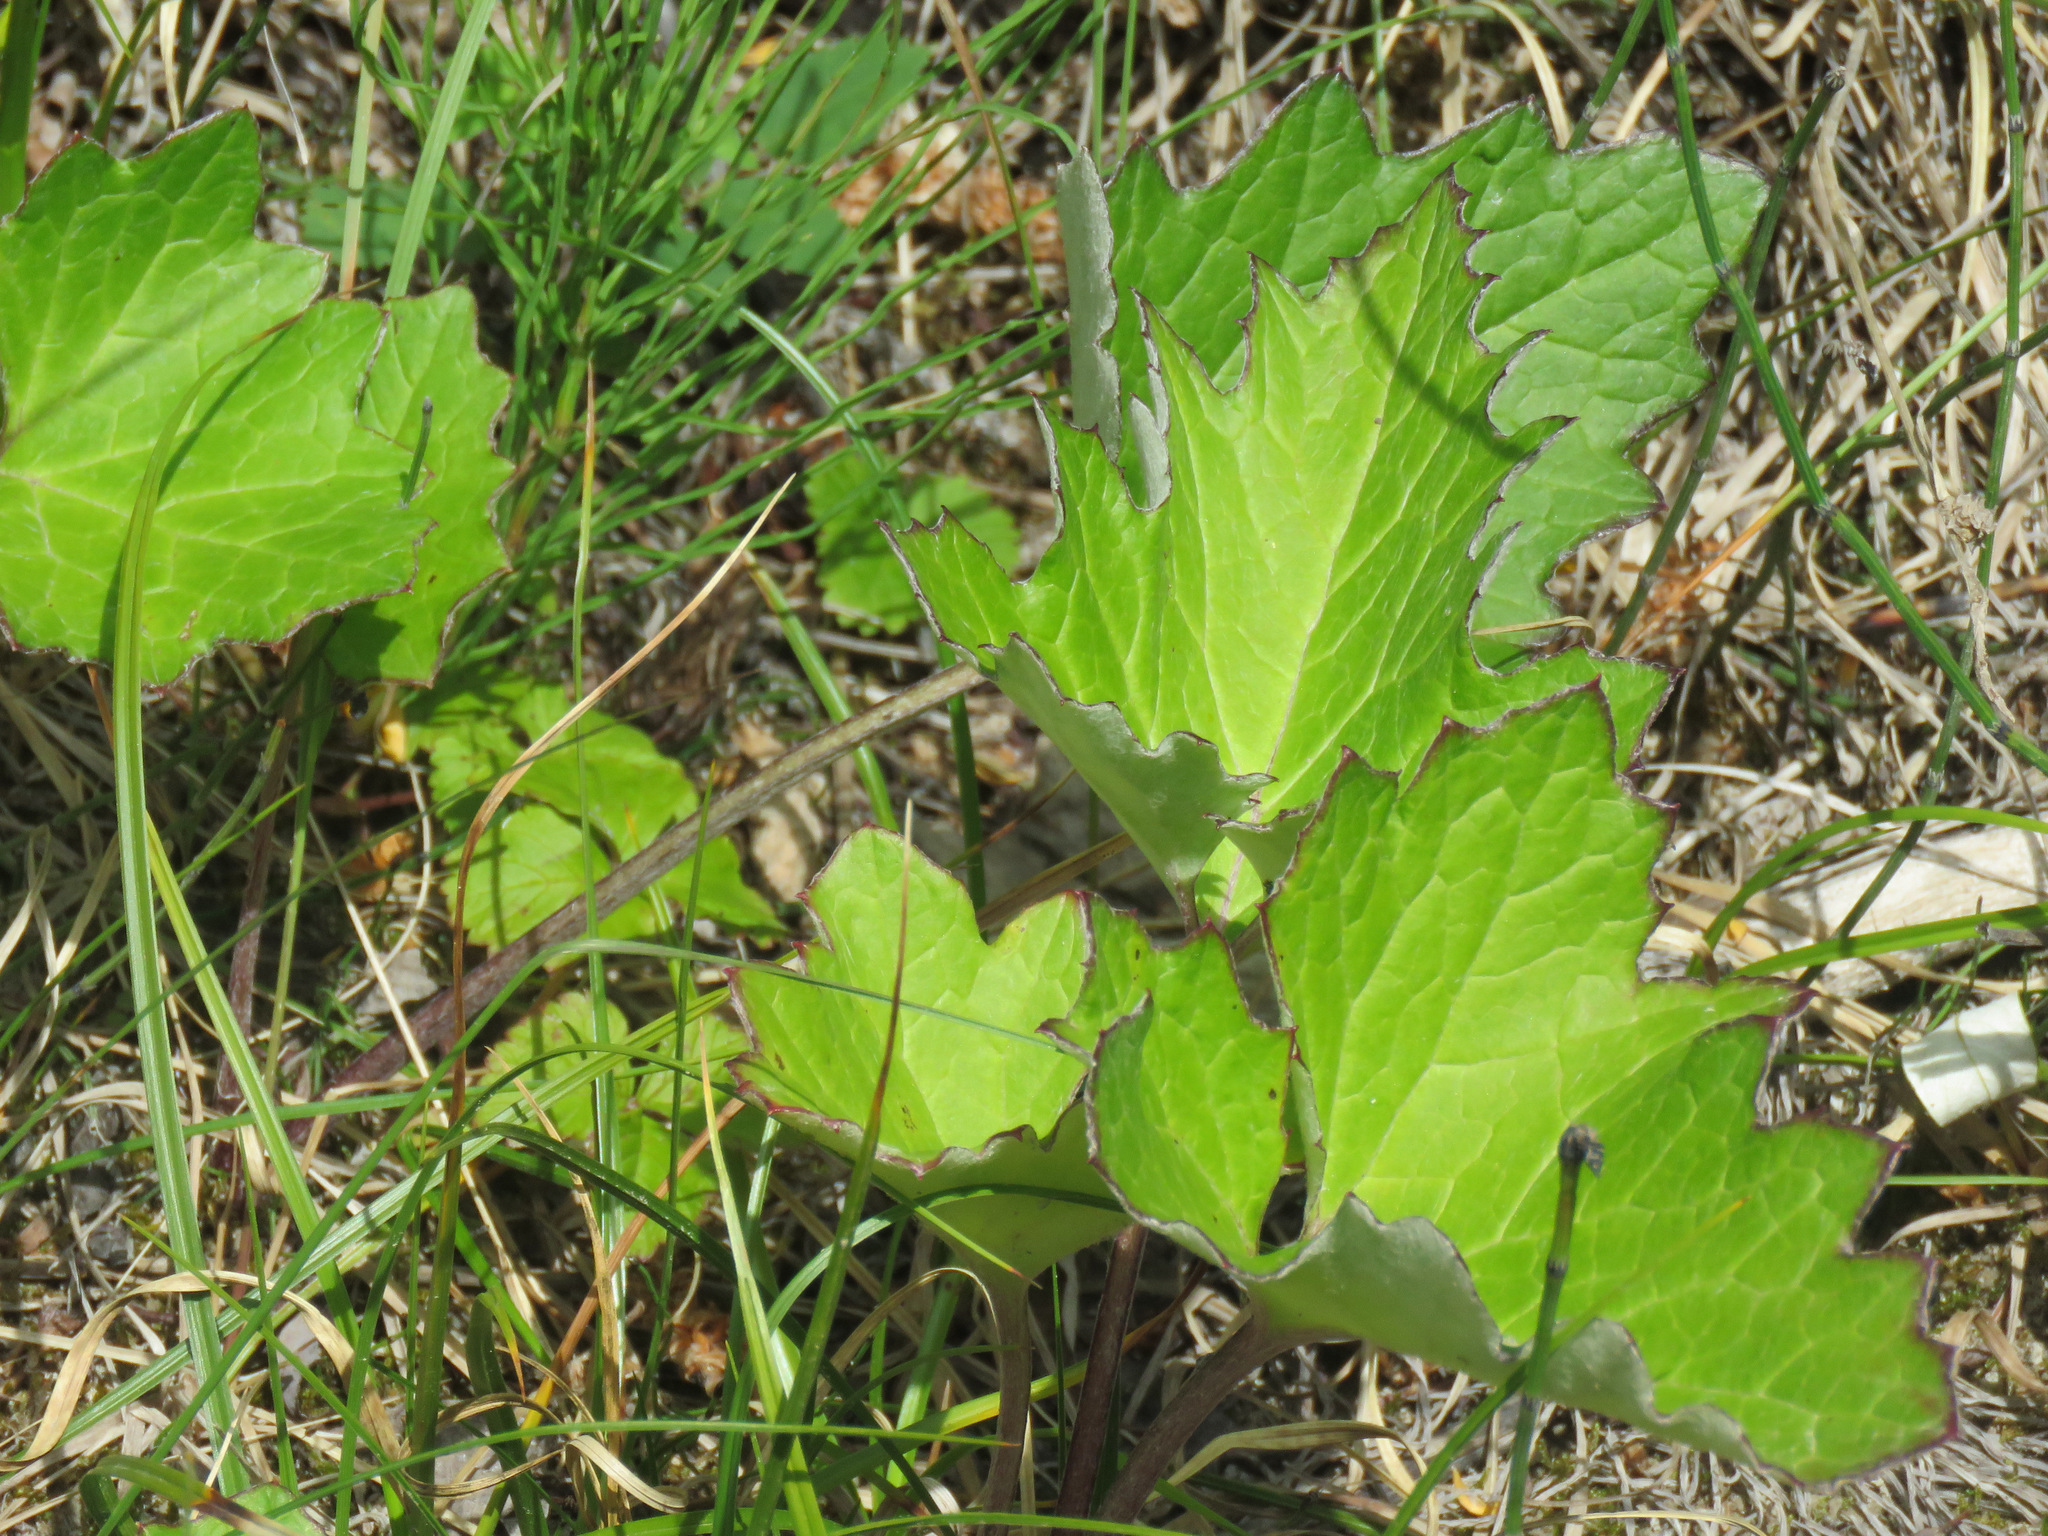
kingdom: Plantae
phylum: Tracheophyta
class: Magnoliopsida
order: Asterales
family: Asteraceae
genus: Petasites
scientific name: Petasites frigidus
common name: Arctic butterbur
